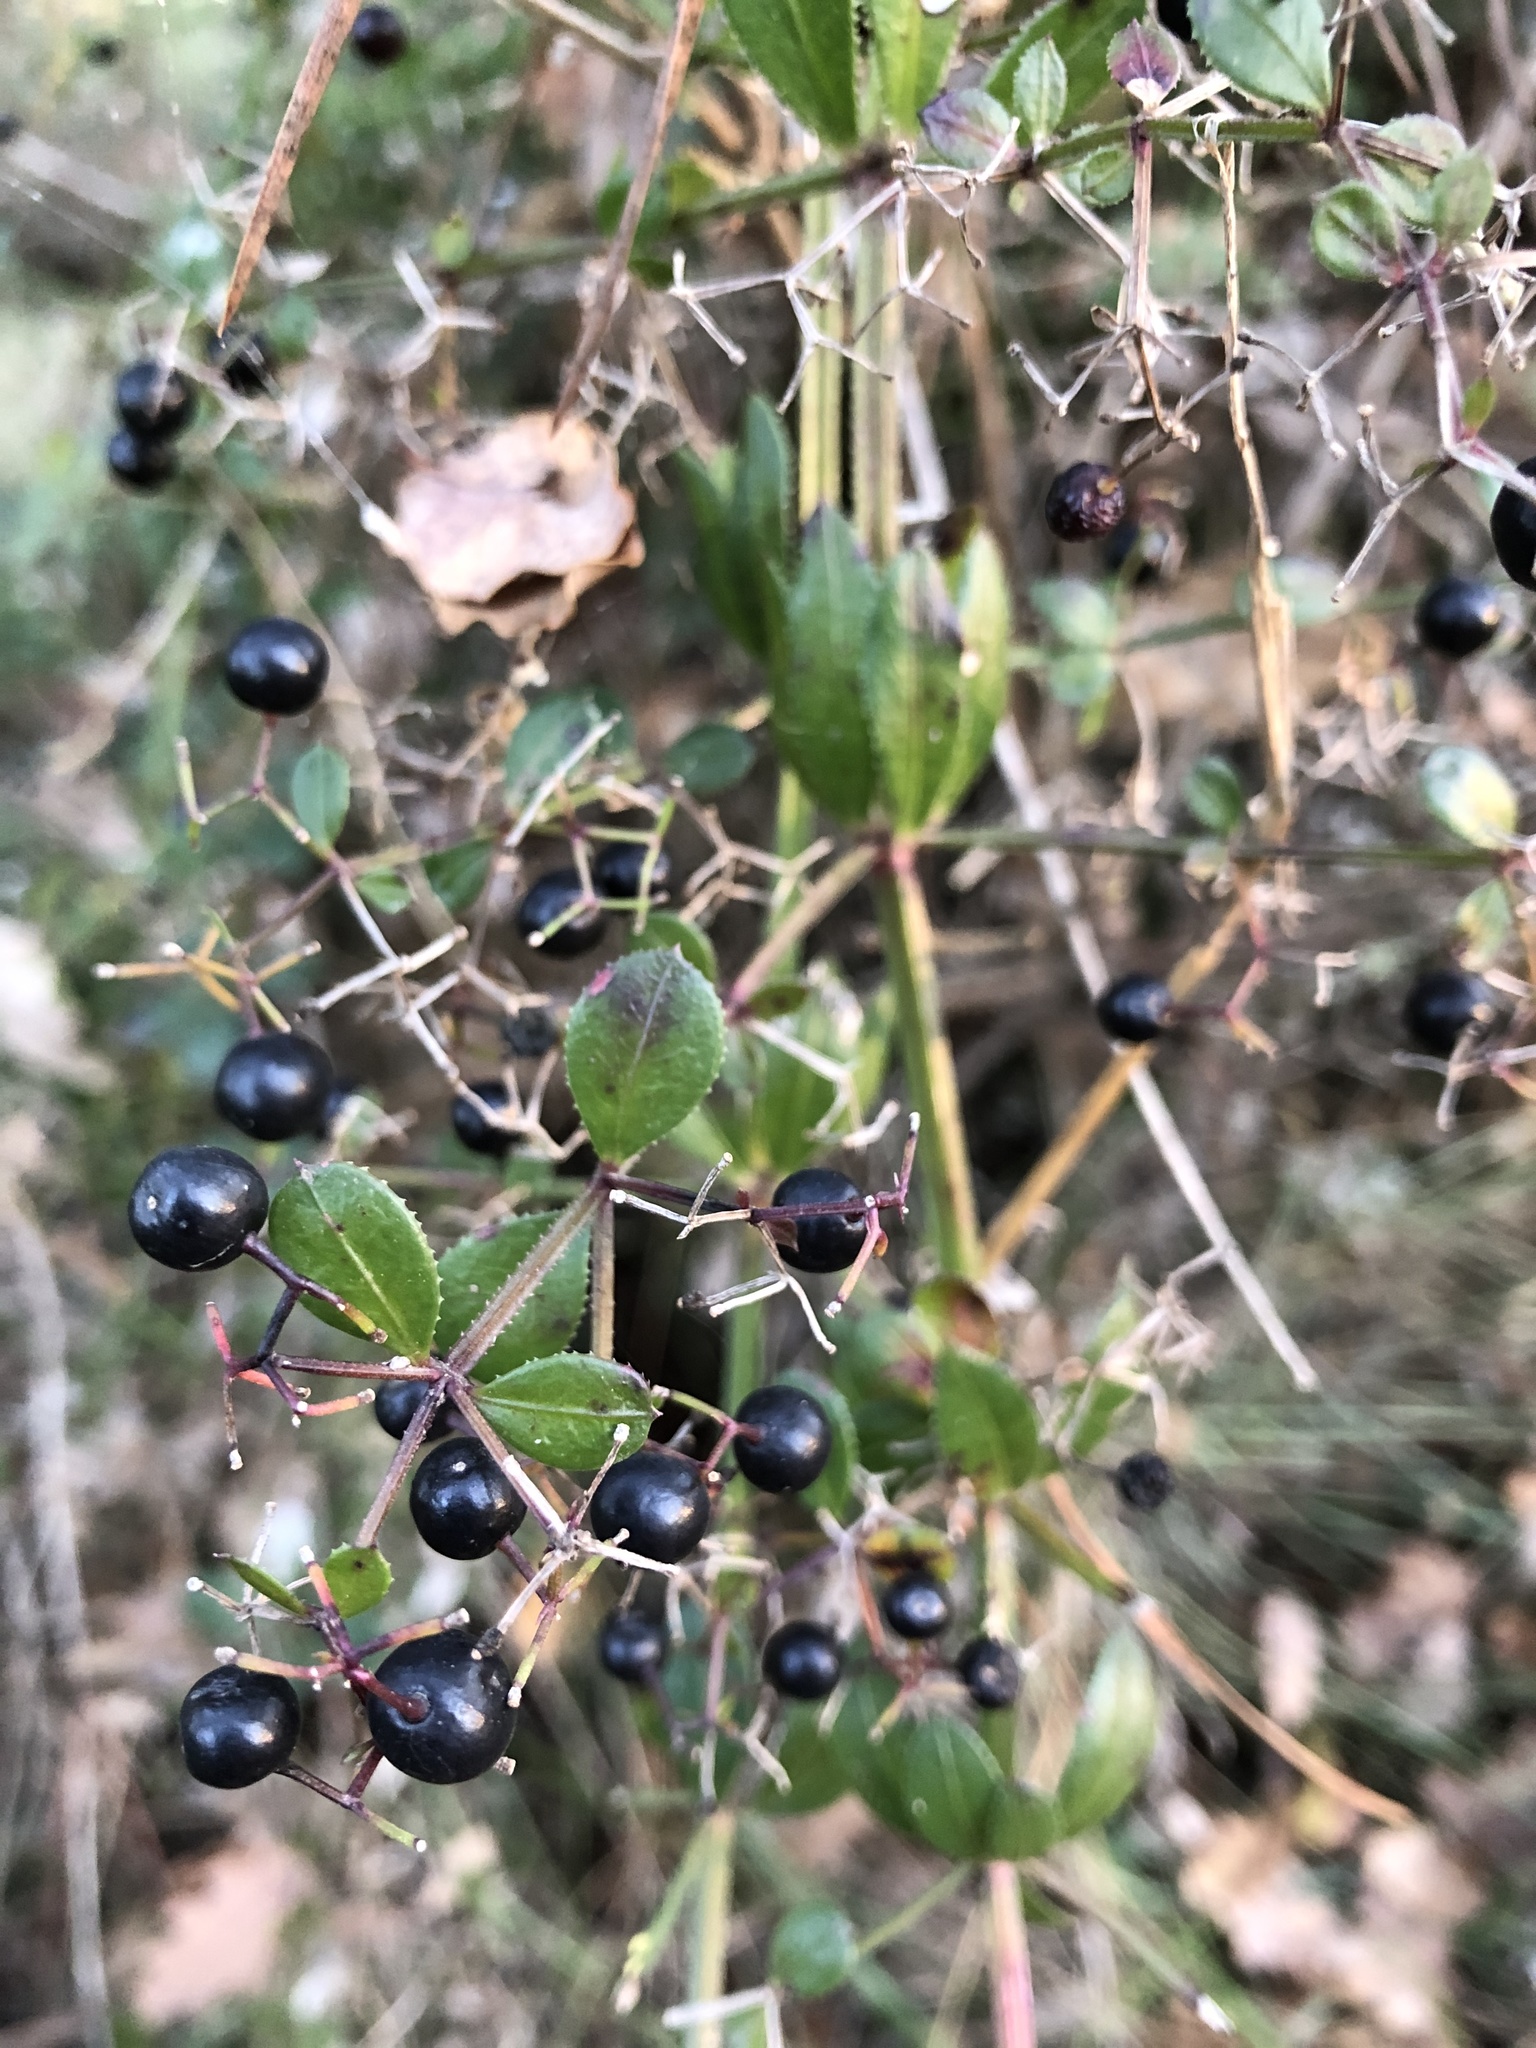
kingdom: Plantae
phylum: Tracheophyta
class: Magnoliopsida
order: Gentianales
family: Rubiaceae
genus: Rubia
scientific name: Rubia peregrina
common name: Wild madder
